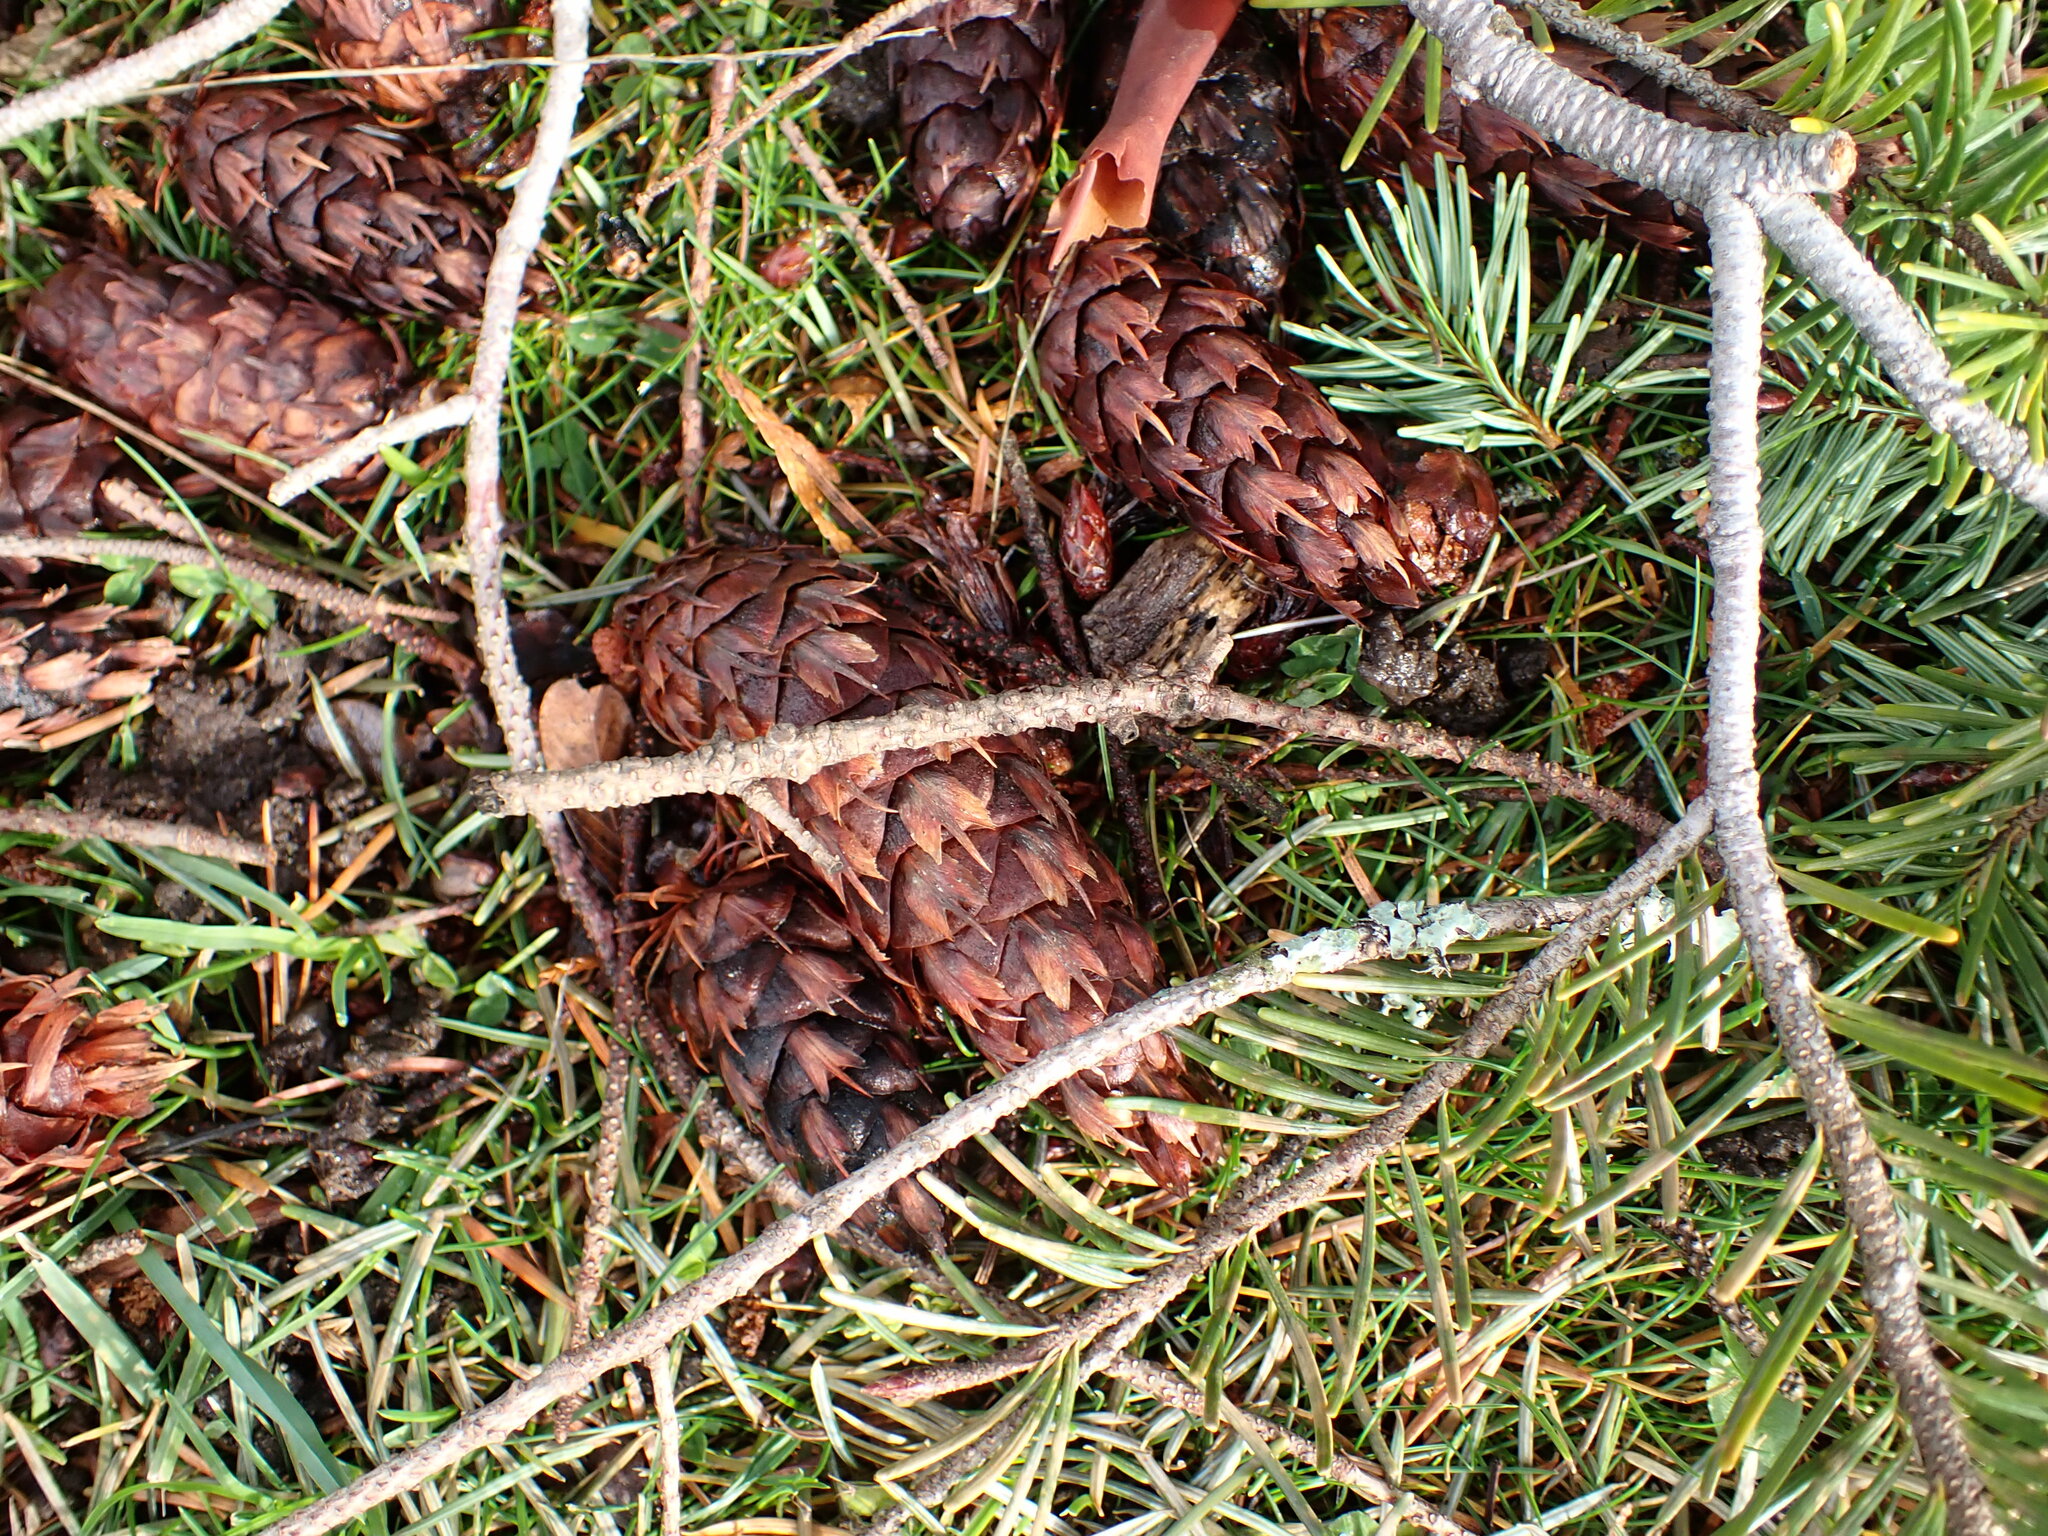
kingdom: Plantae
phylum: Tracheophyta
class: Pinopsida
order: Pinales
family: Pinaceae
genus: Pseudotsuga
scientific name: Pseudotsuga menziesii
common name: Douglas fir
